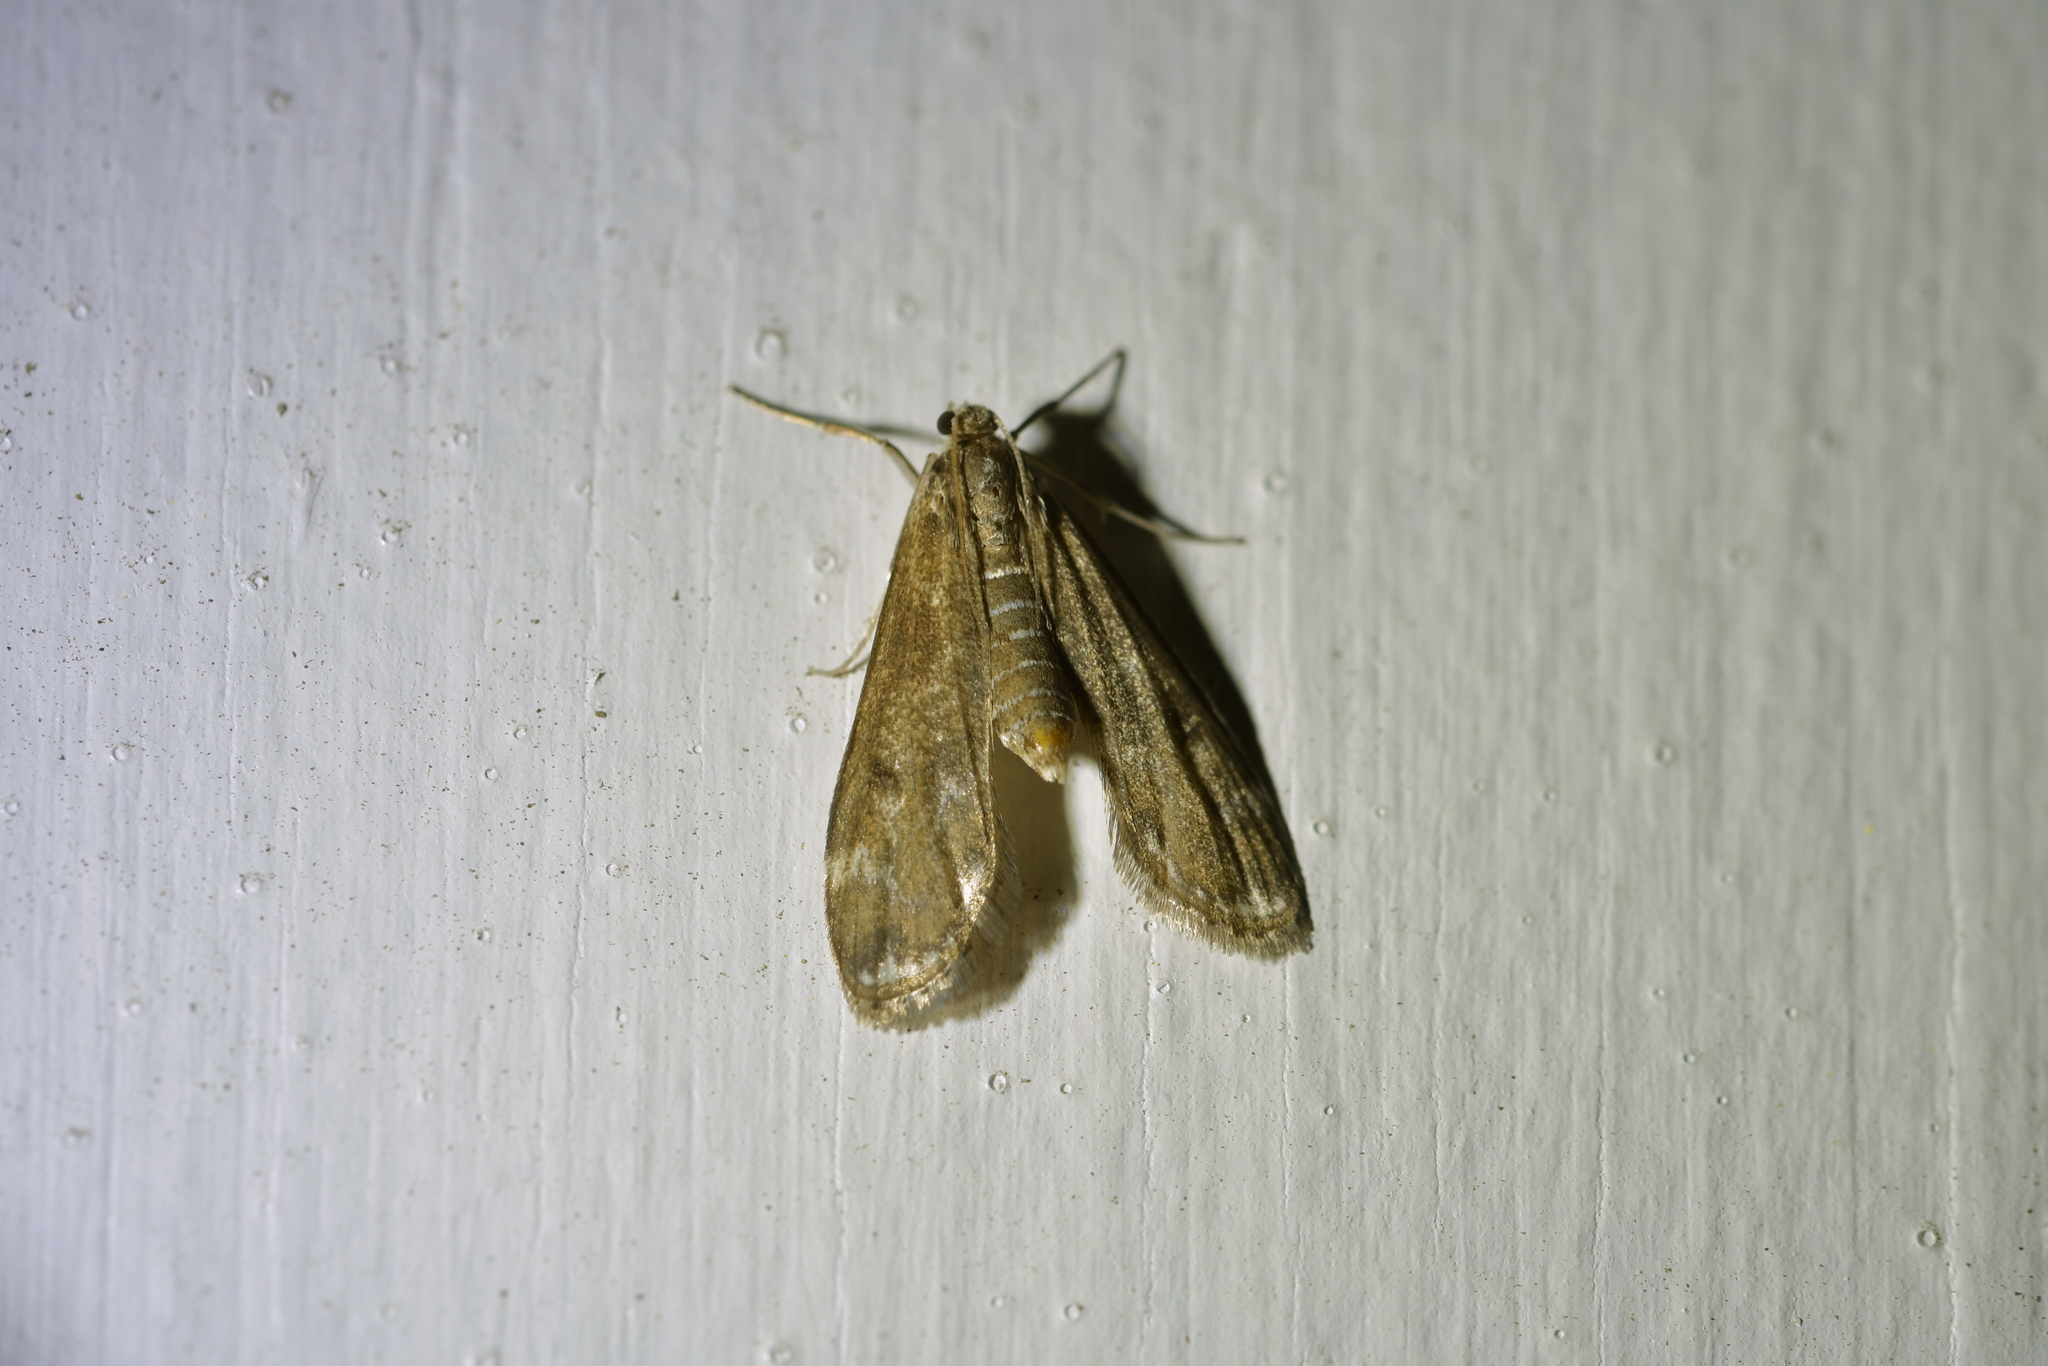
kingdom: Animalia
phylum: Arthropoda
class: Insecta
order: Lepidoptera
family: Crambidae
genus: Hygraula
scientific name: Hygraula nitens
